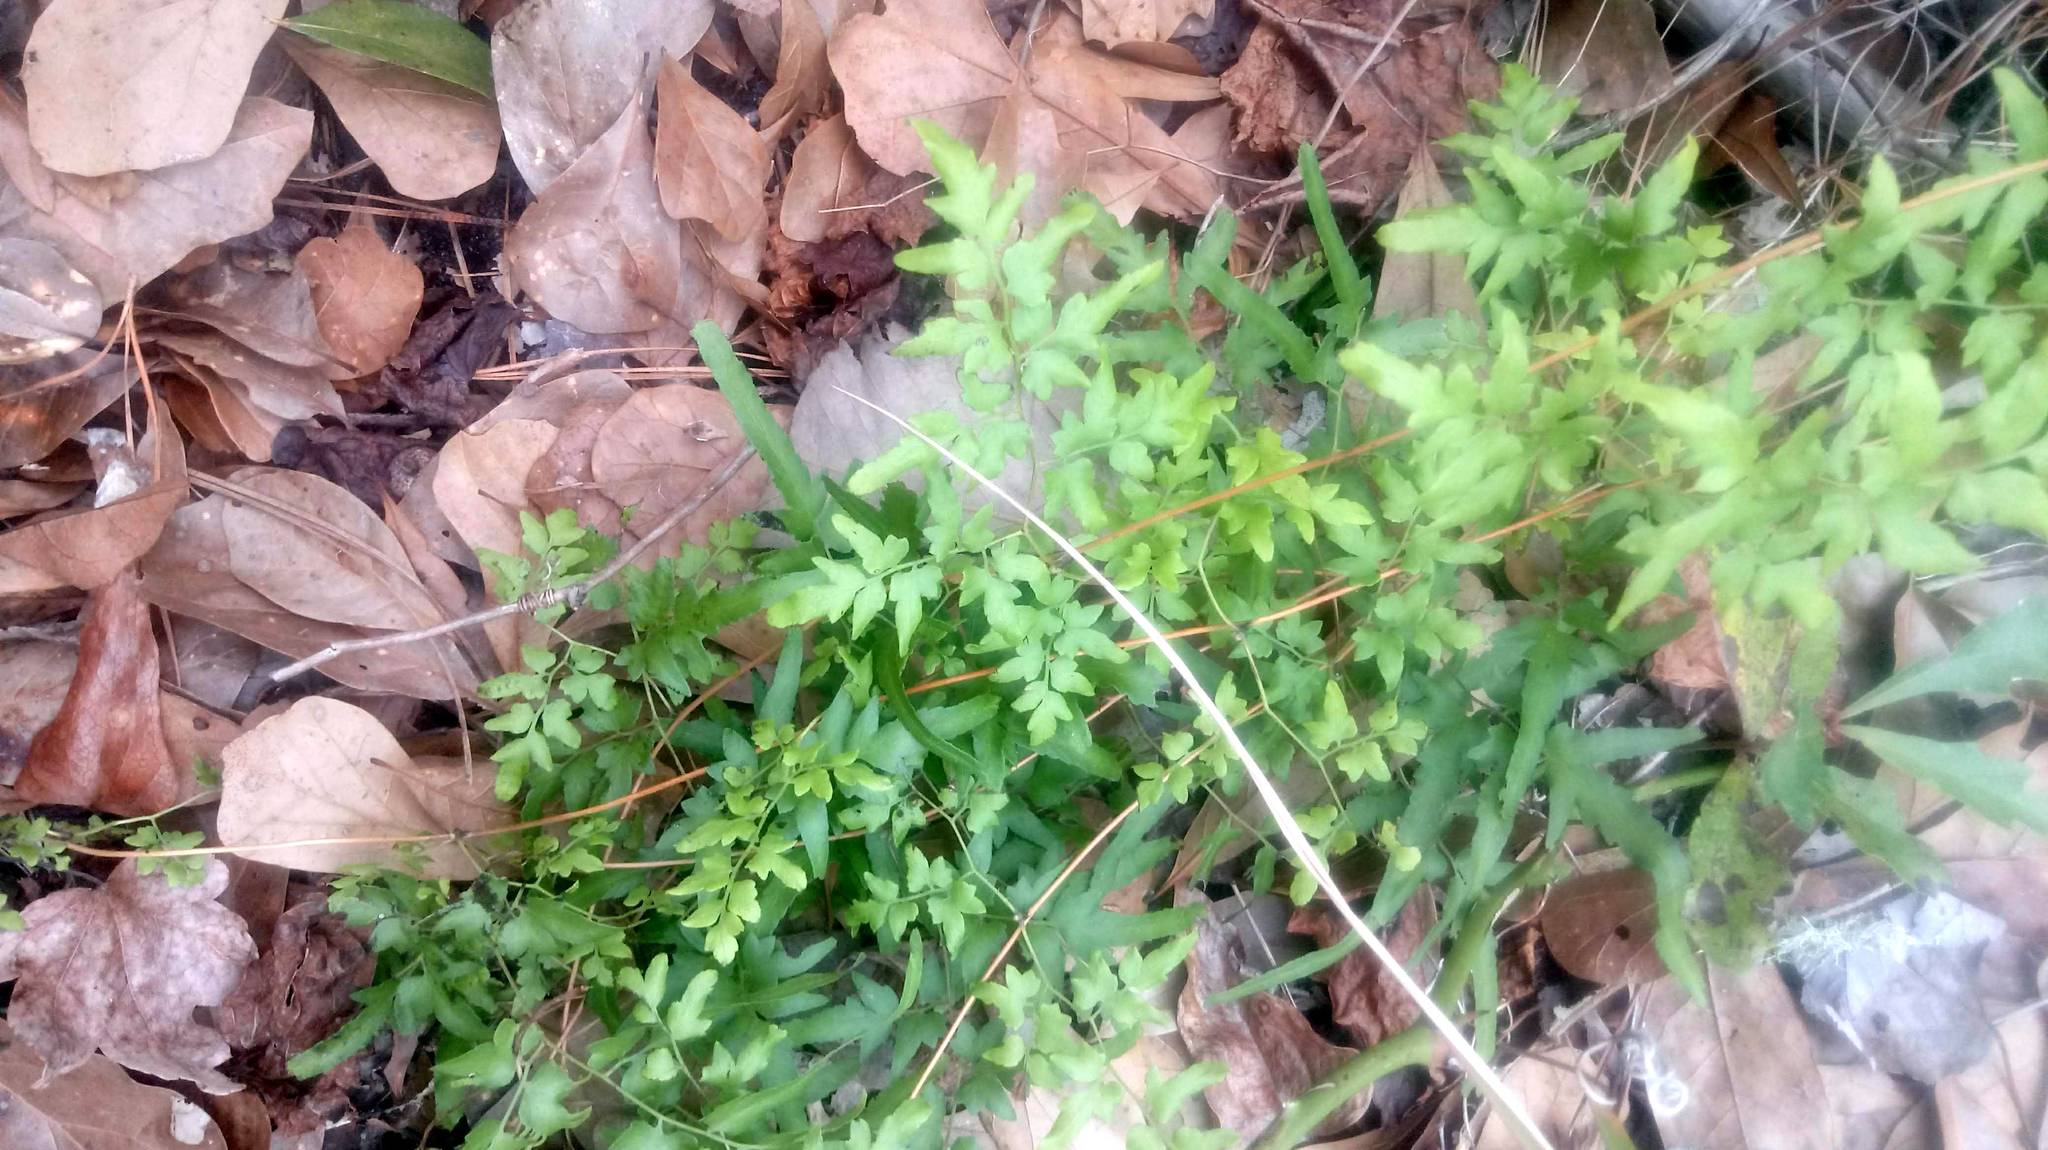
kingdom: Plantae
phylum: Tracheophyta
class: Polypodiopsida
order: Schizaeales
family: Lygodiaceae
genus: Lygodium
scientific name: Lygodium japonicum
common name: Japanese climbing fern
